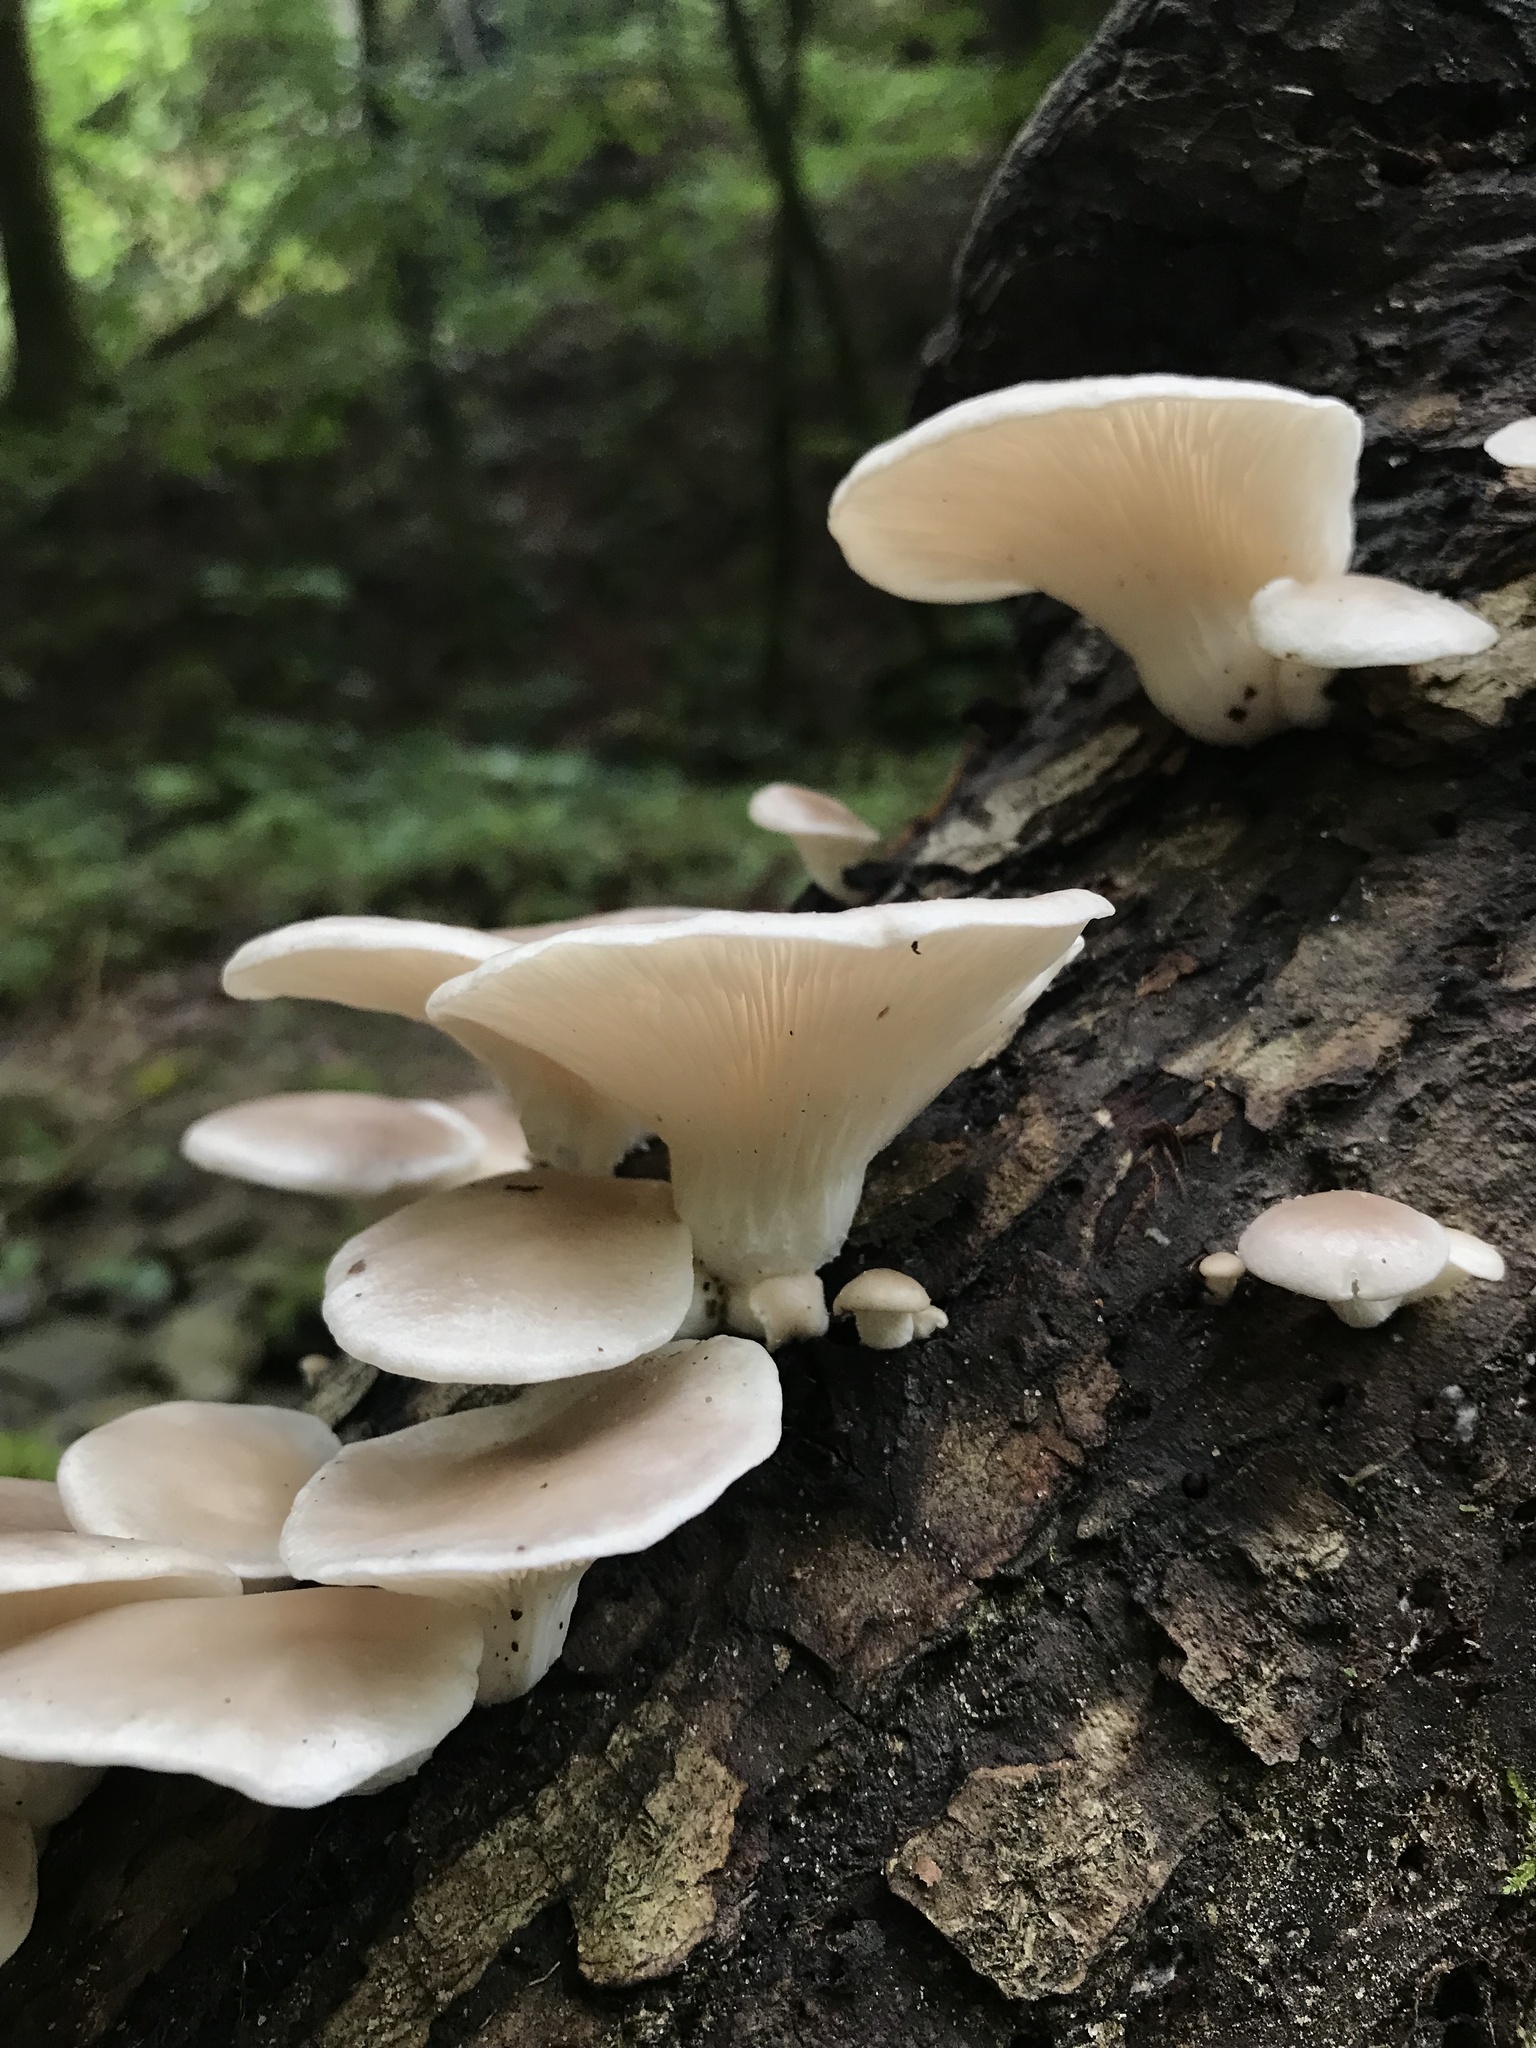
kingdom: Fungi
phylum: Basidiomycota
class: Agaricomycetes
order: Agaricales
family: Pleurotaceae
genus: Pleurotus
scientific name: Pleurotus pulmonarius
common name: Pale oyster
